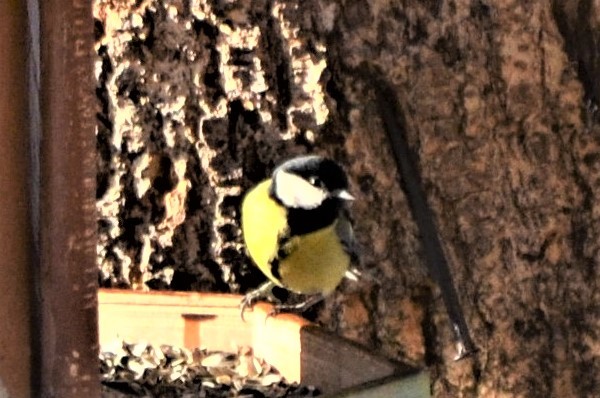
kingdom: Animalia
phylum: Chordata
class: Aves
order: Passeriformes
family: Paridae
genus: Parus
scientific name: Parus major
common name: Great tit
